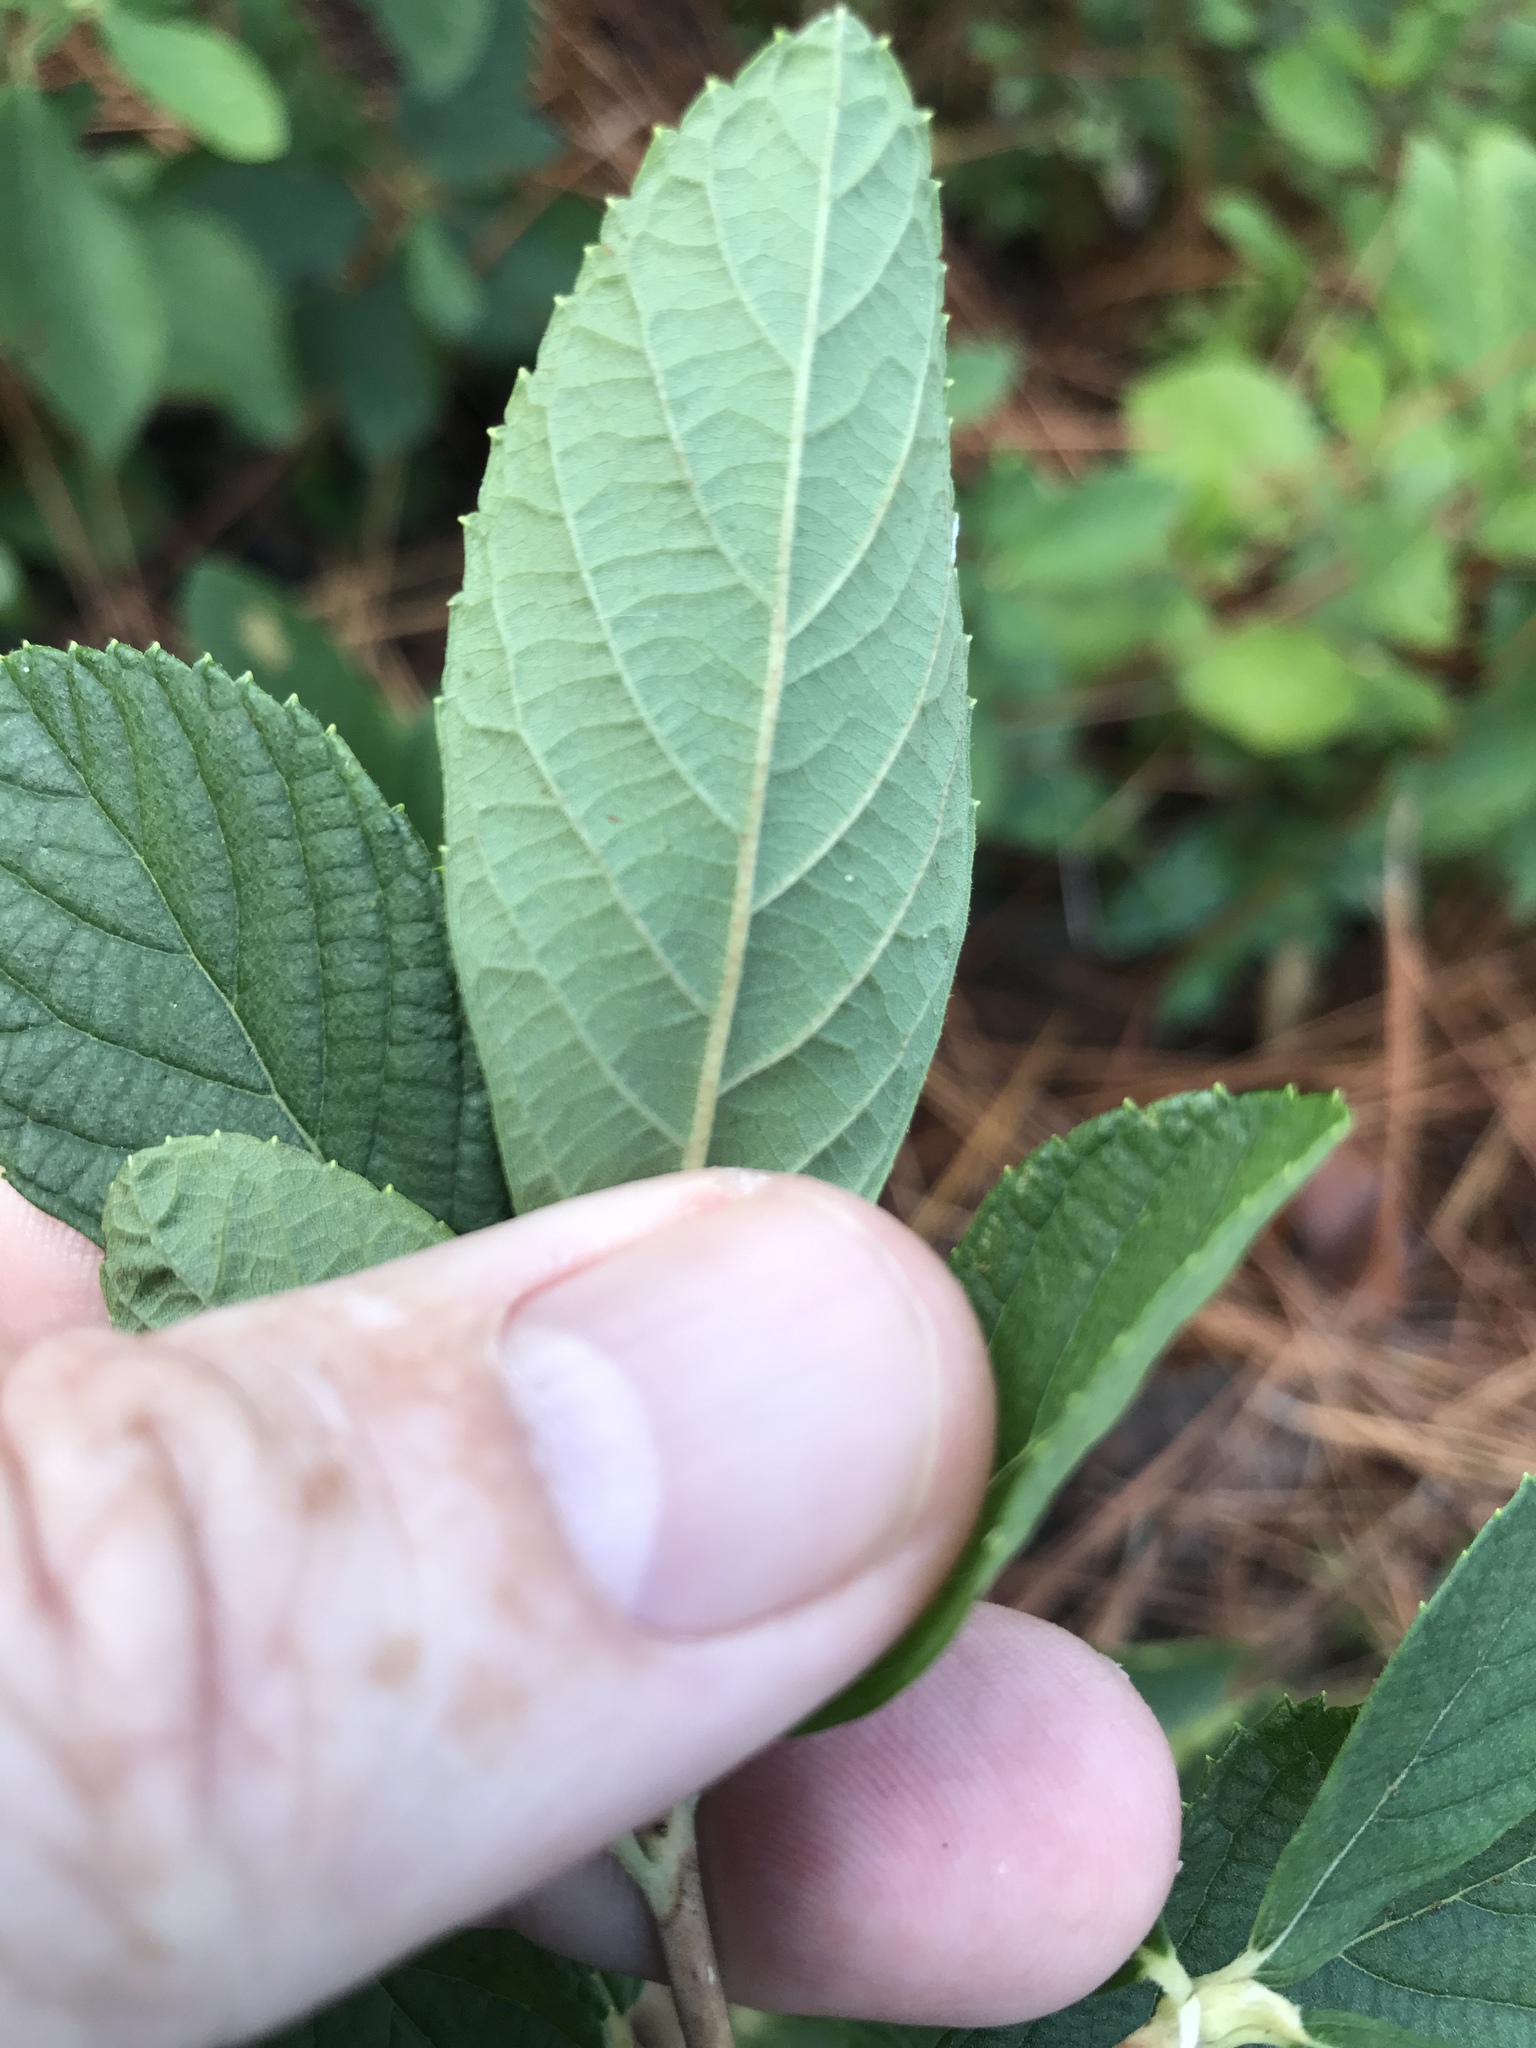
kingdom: Plantae
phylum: Tracheophyta
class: Magnoliopsida
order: Ericales
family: Clethraceae
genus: Clethra
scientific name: Clethra alnifolia
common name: Sweet pepperbush
